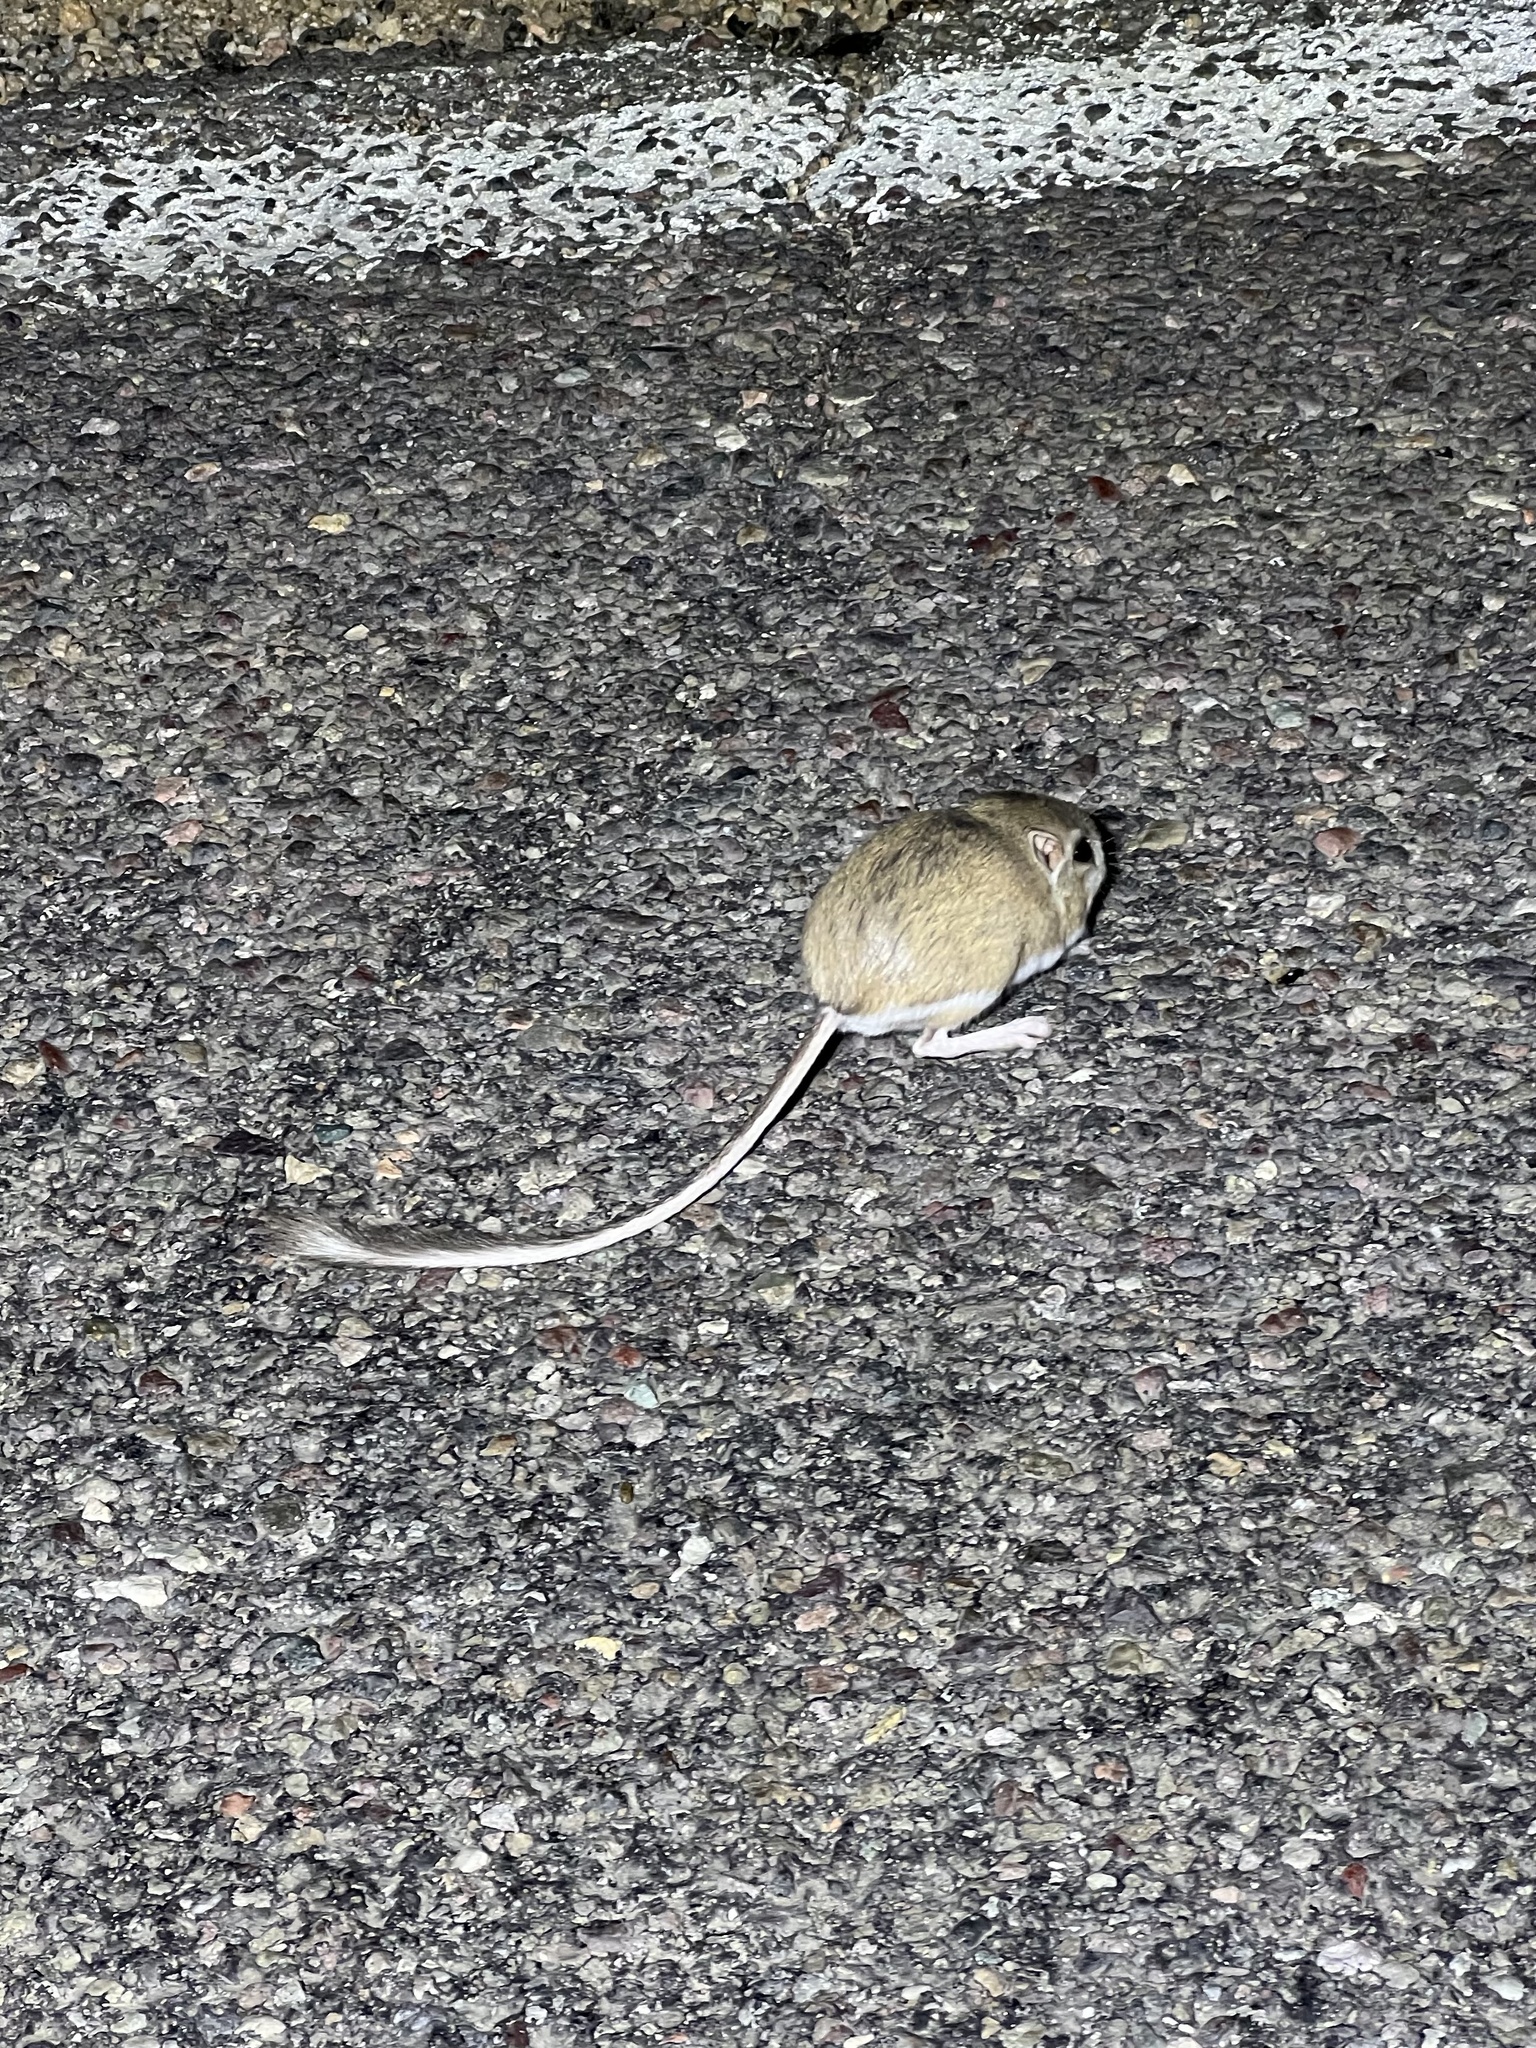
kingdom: Animalia
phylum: Chordata
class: Mammalia
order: Rodentia
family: Heteromyidae
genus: Dipodomys
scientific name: Dipodomys merriami
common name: Merriam's kangaroo rat
